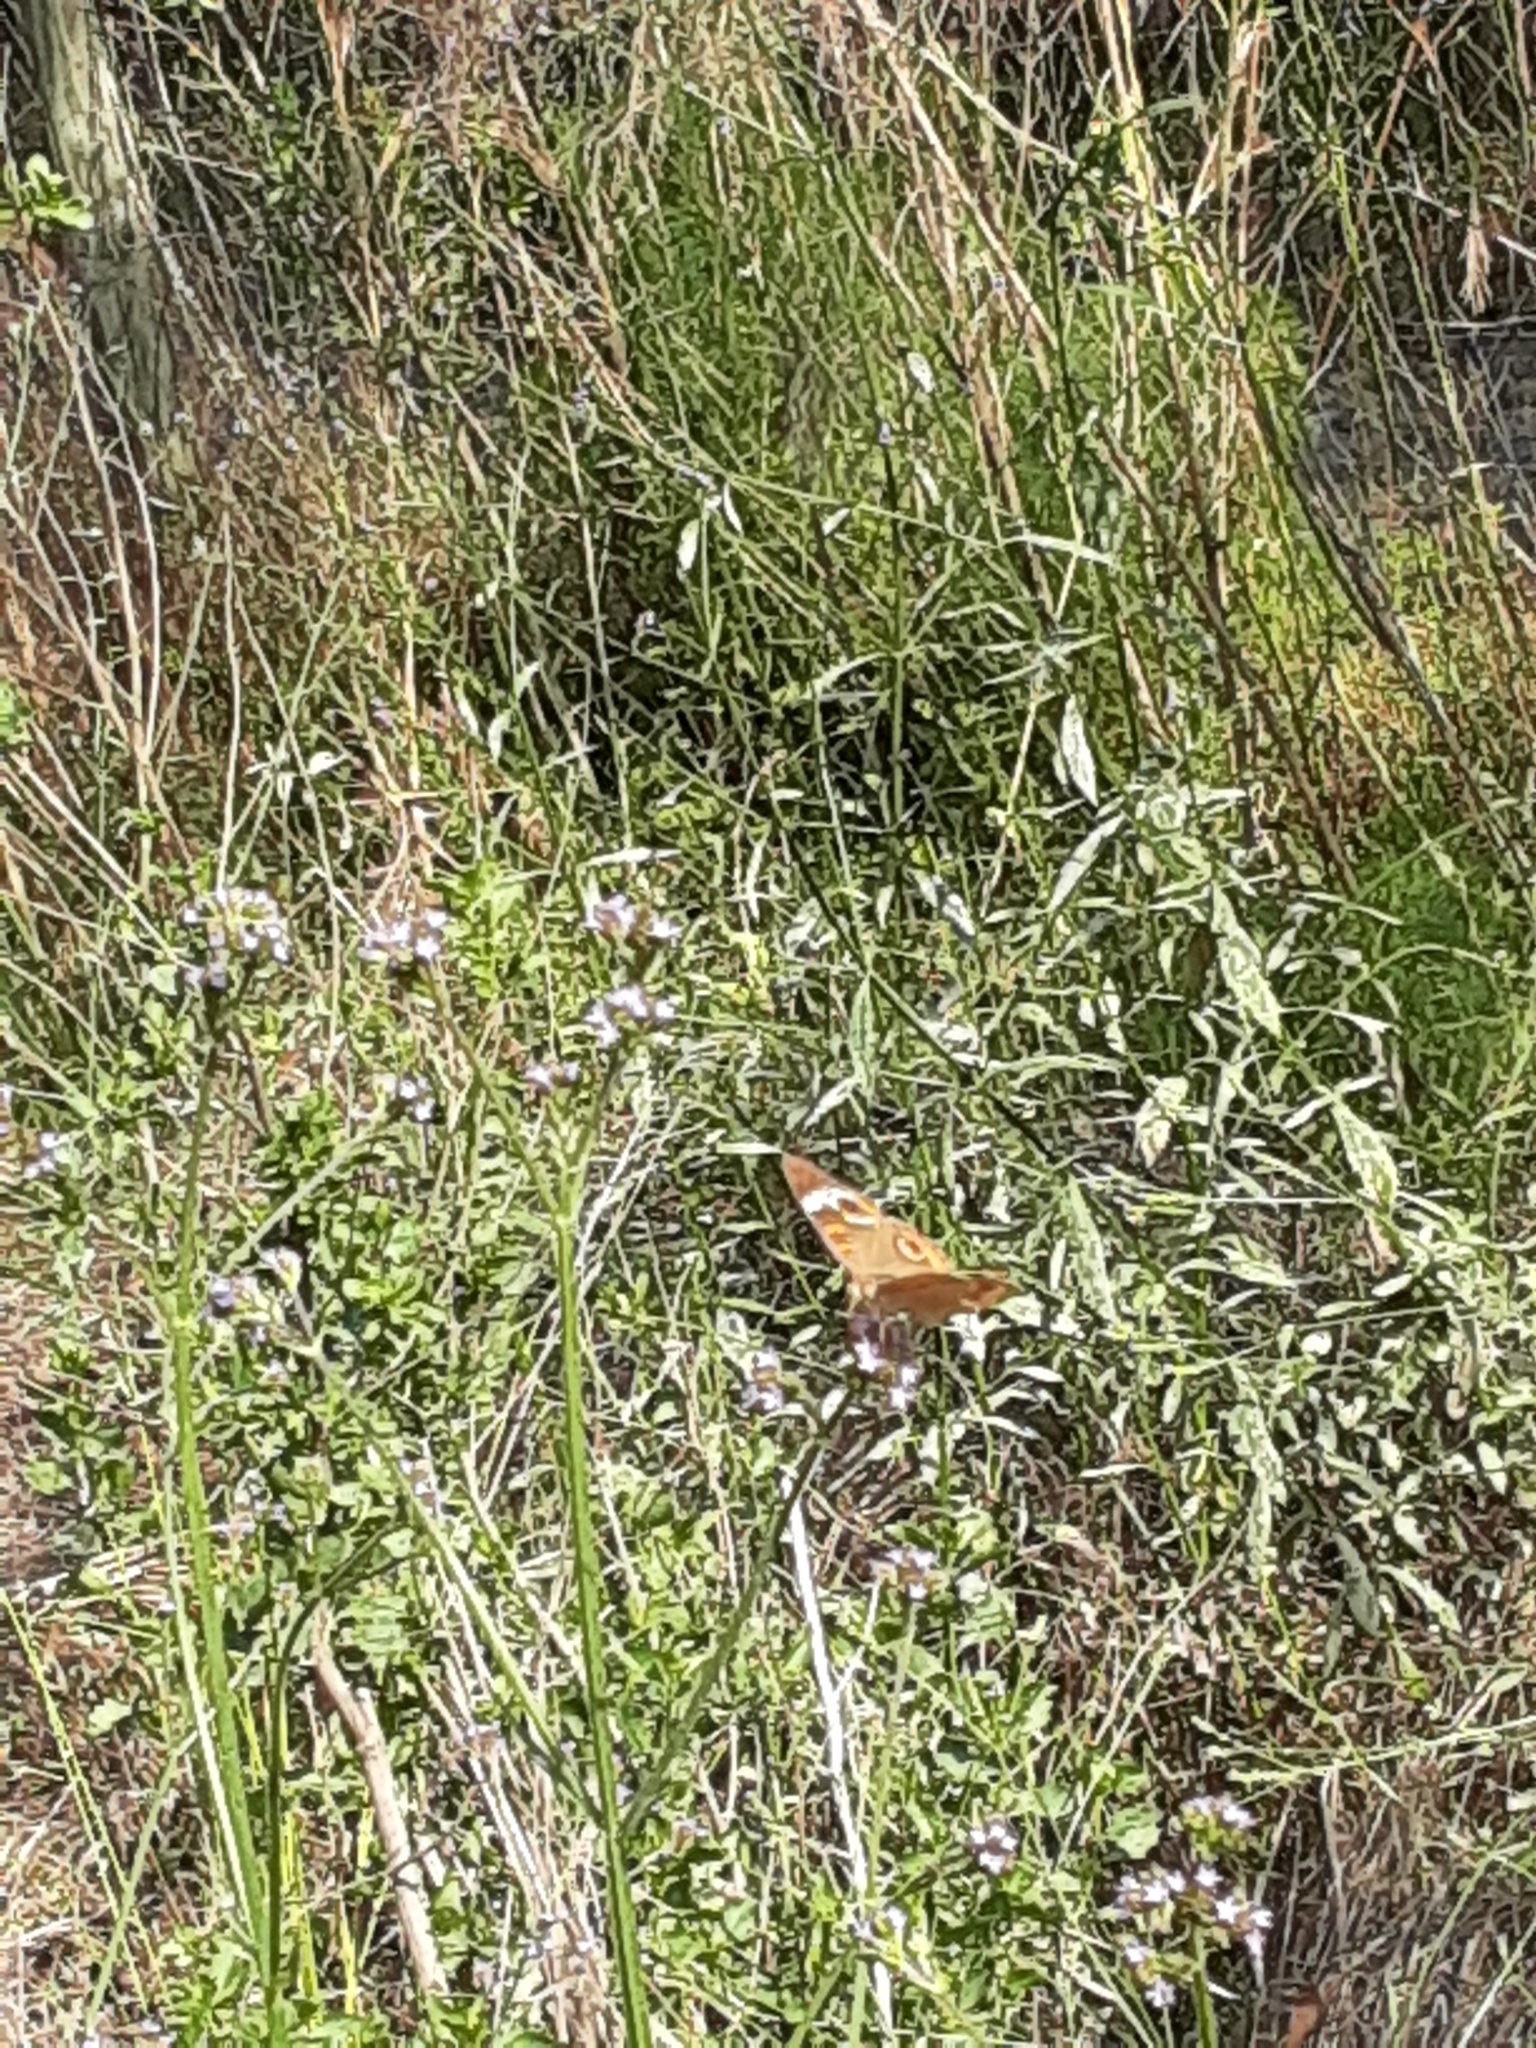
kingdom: Animalia
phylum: Arthropoda
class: Insecta
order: Lepidoptera
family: Nymphalidae
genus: Junonia
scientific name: Junonia coenia
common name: Common buckeye
